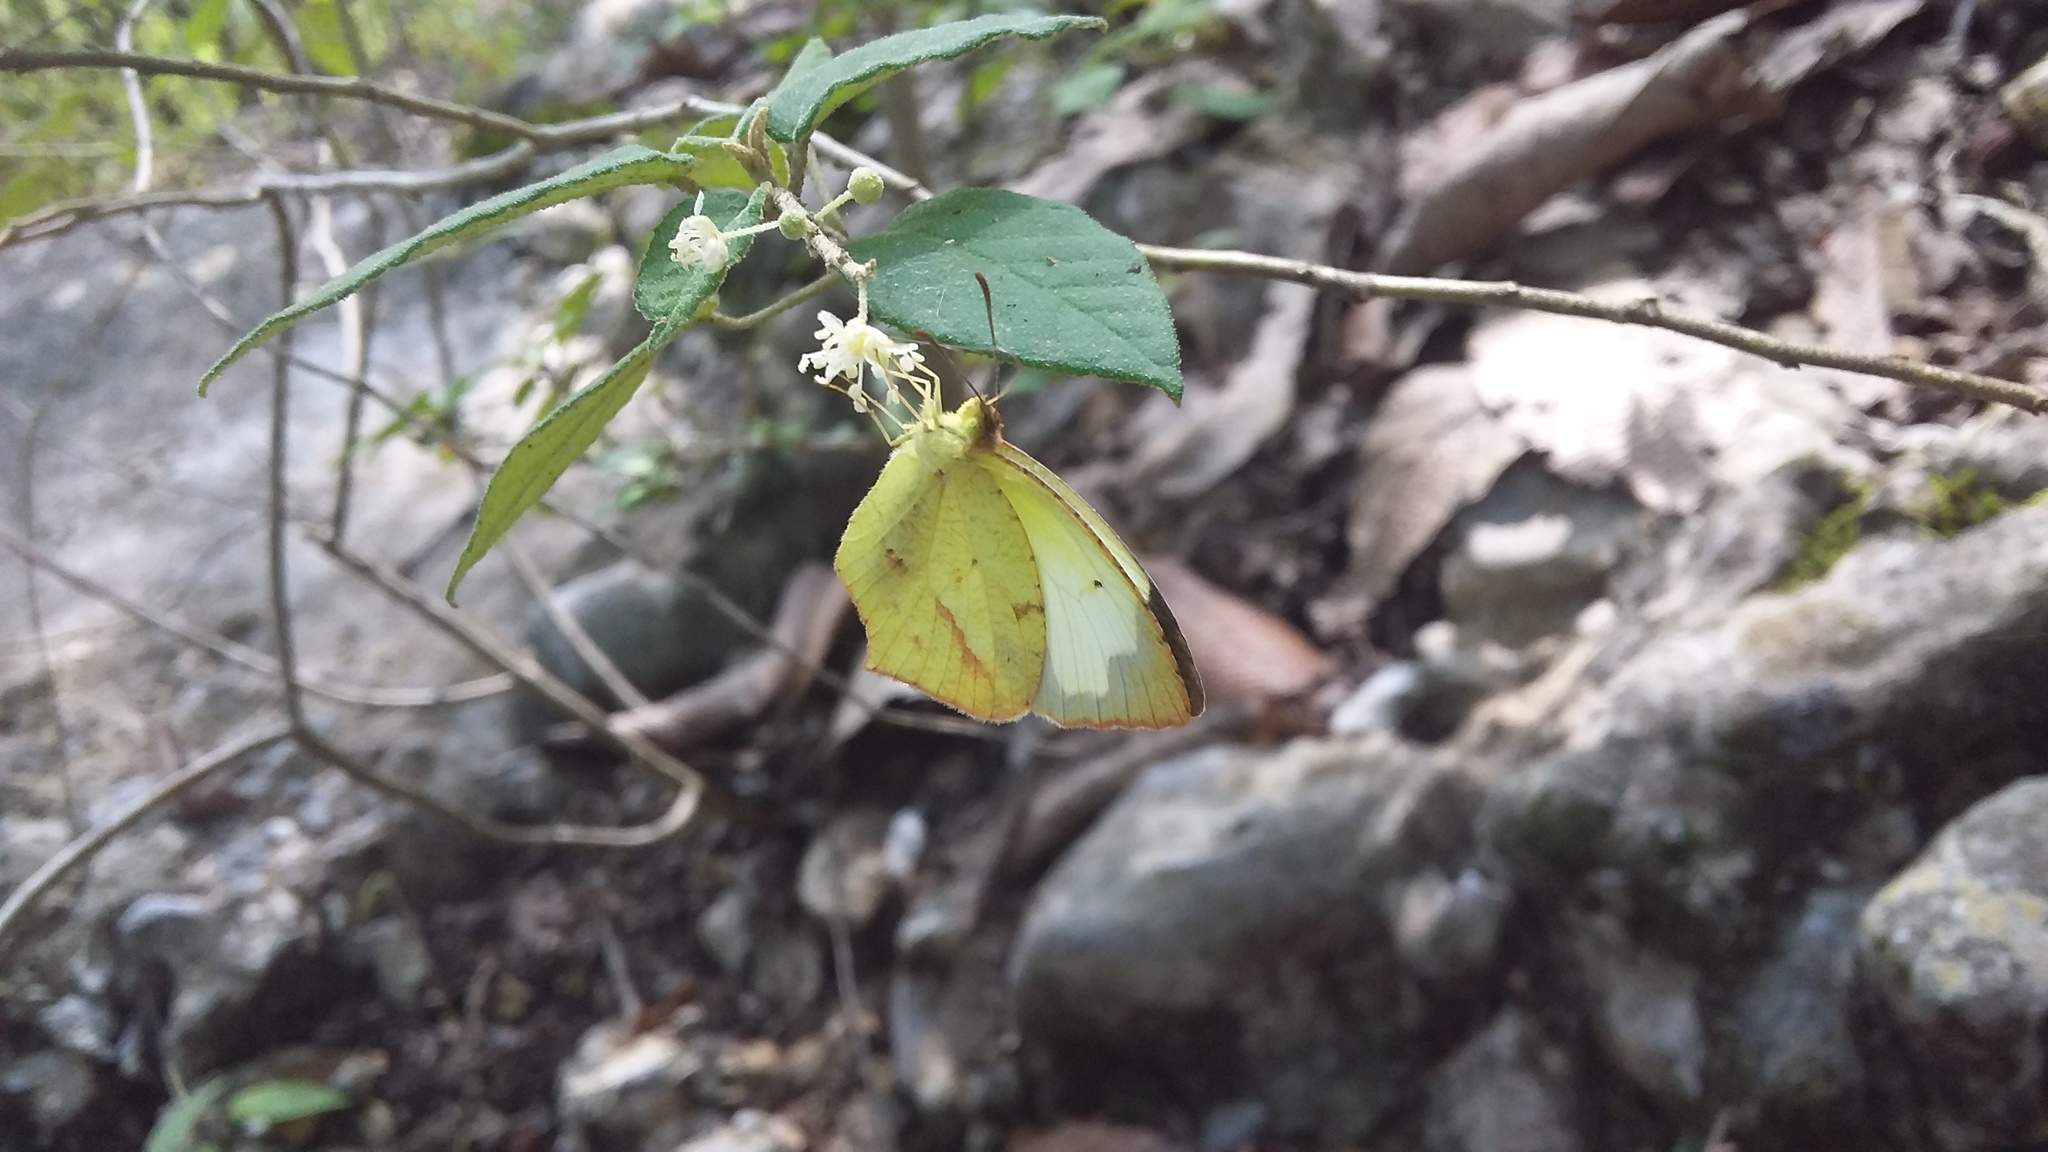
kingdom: Animalia
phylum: Arthropoda
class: Insecta
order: Lepidoptera
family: Pieridae
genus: Abaeis
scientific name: Abaeis mexicana
